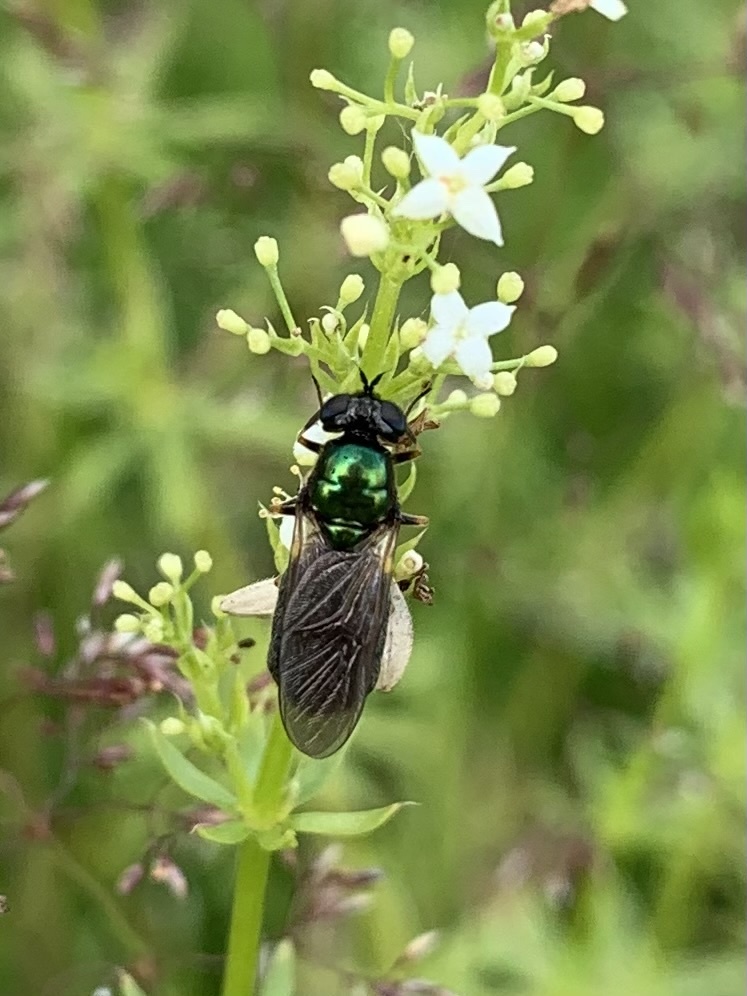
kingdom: Animalia
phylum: Arthropoda
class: Insecta
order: Diptera
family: Stratiomyidae
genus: Chloromyia
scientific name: Chloromyia formosa
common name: Soldier fly
